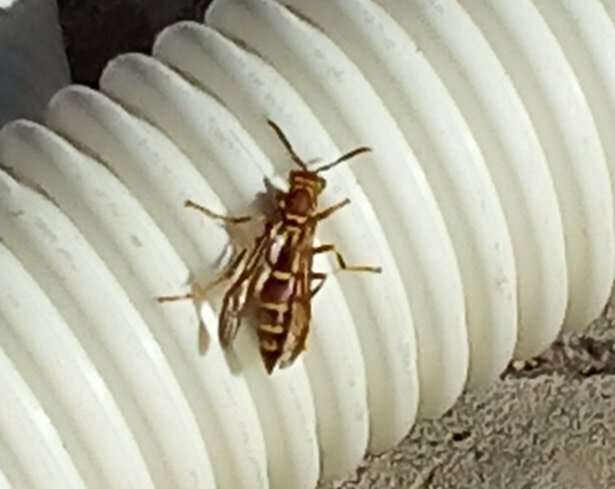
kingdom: Animalia
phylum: Arthropoda
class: Insecta
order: Hymenoptera
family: Eumenidae
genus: Polistes
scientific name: Polistes exclamans
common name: Paper wasp
